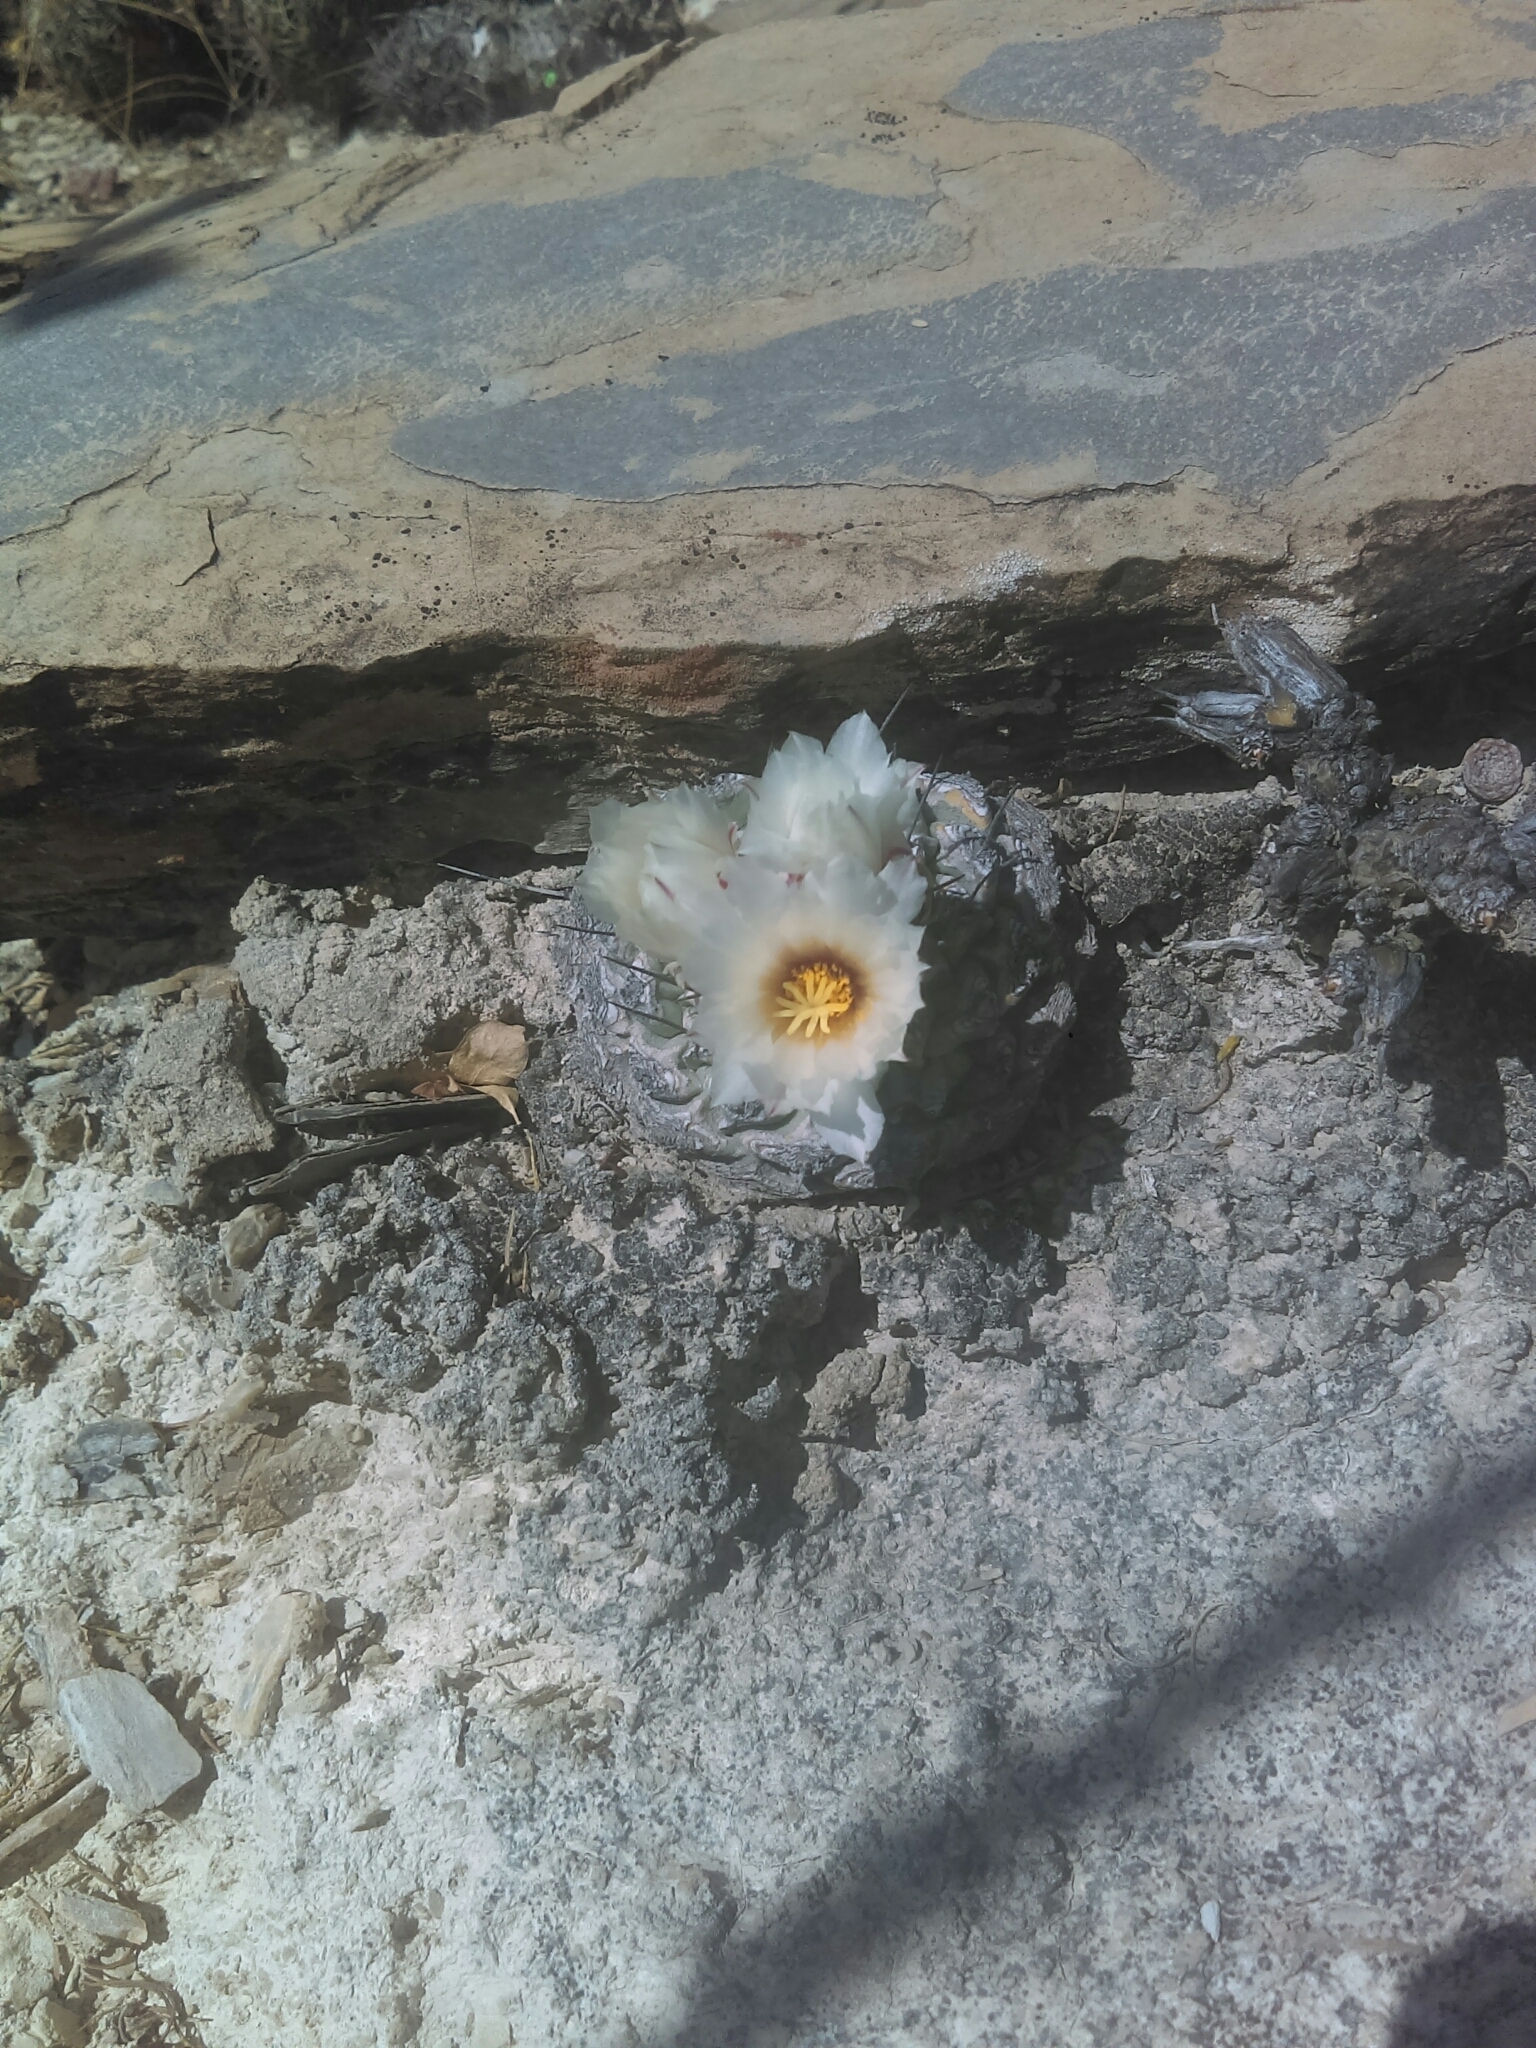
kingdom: Plantae
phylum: Tracheophyta
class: Magnoliopsida
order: Caryophyllales
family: Cactaceae
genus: Strombocactus
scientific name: Strombocactus disciformis
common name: Top cactus
